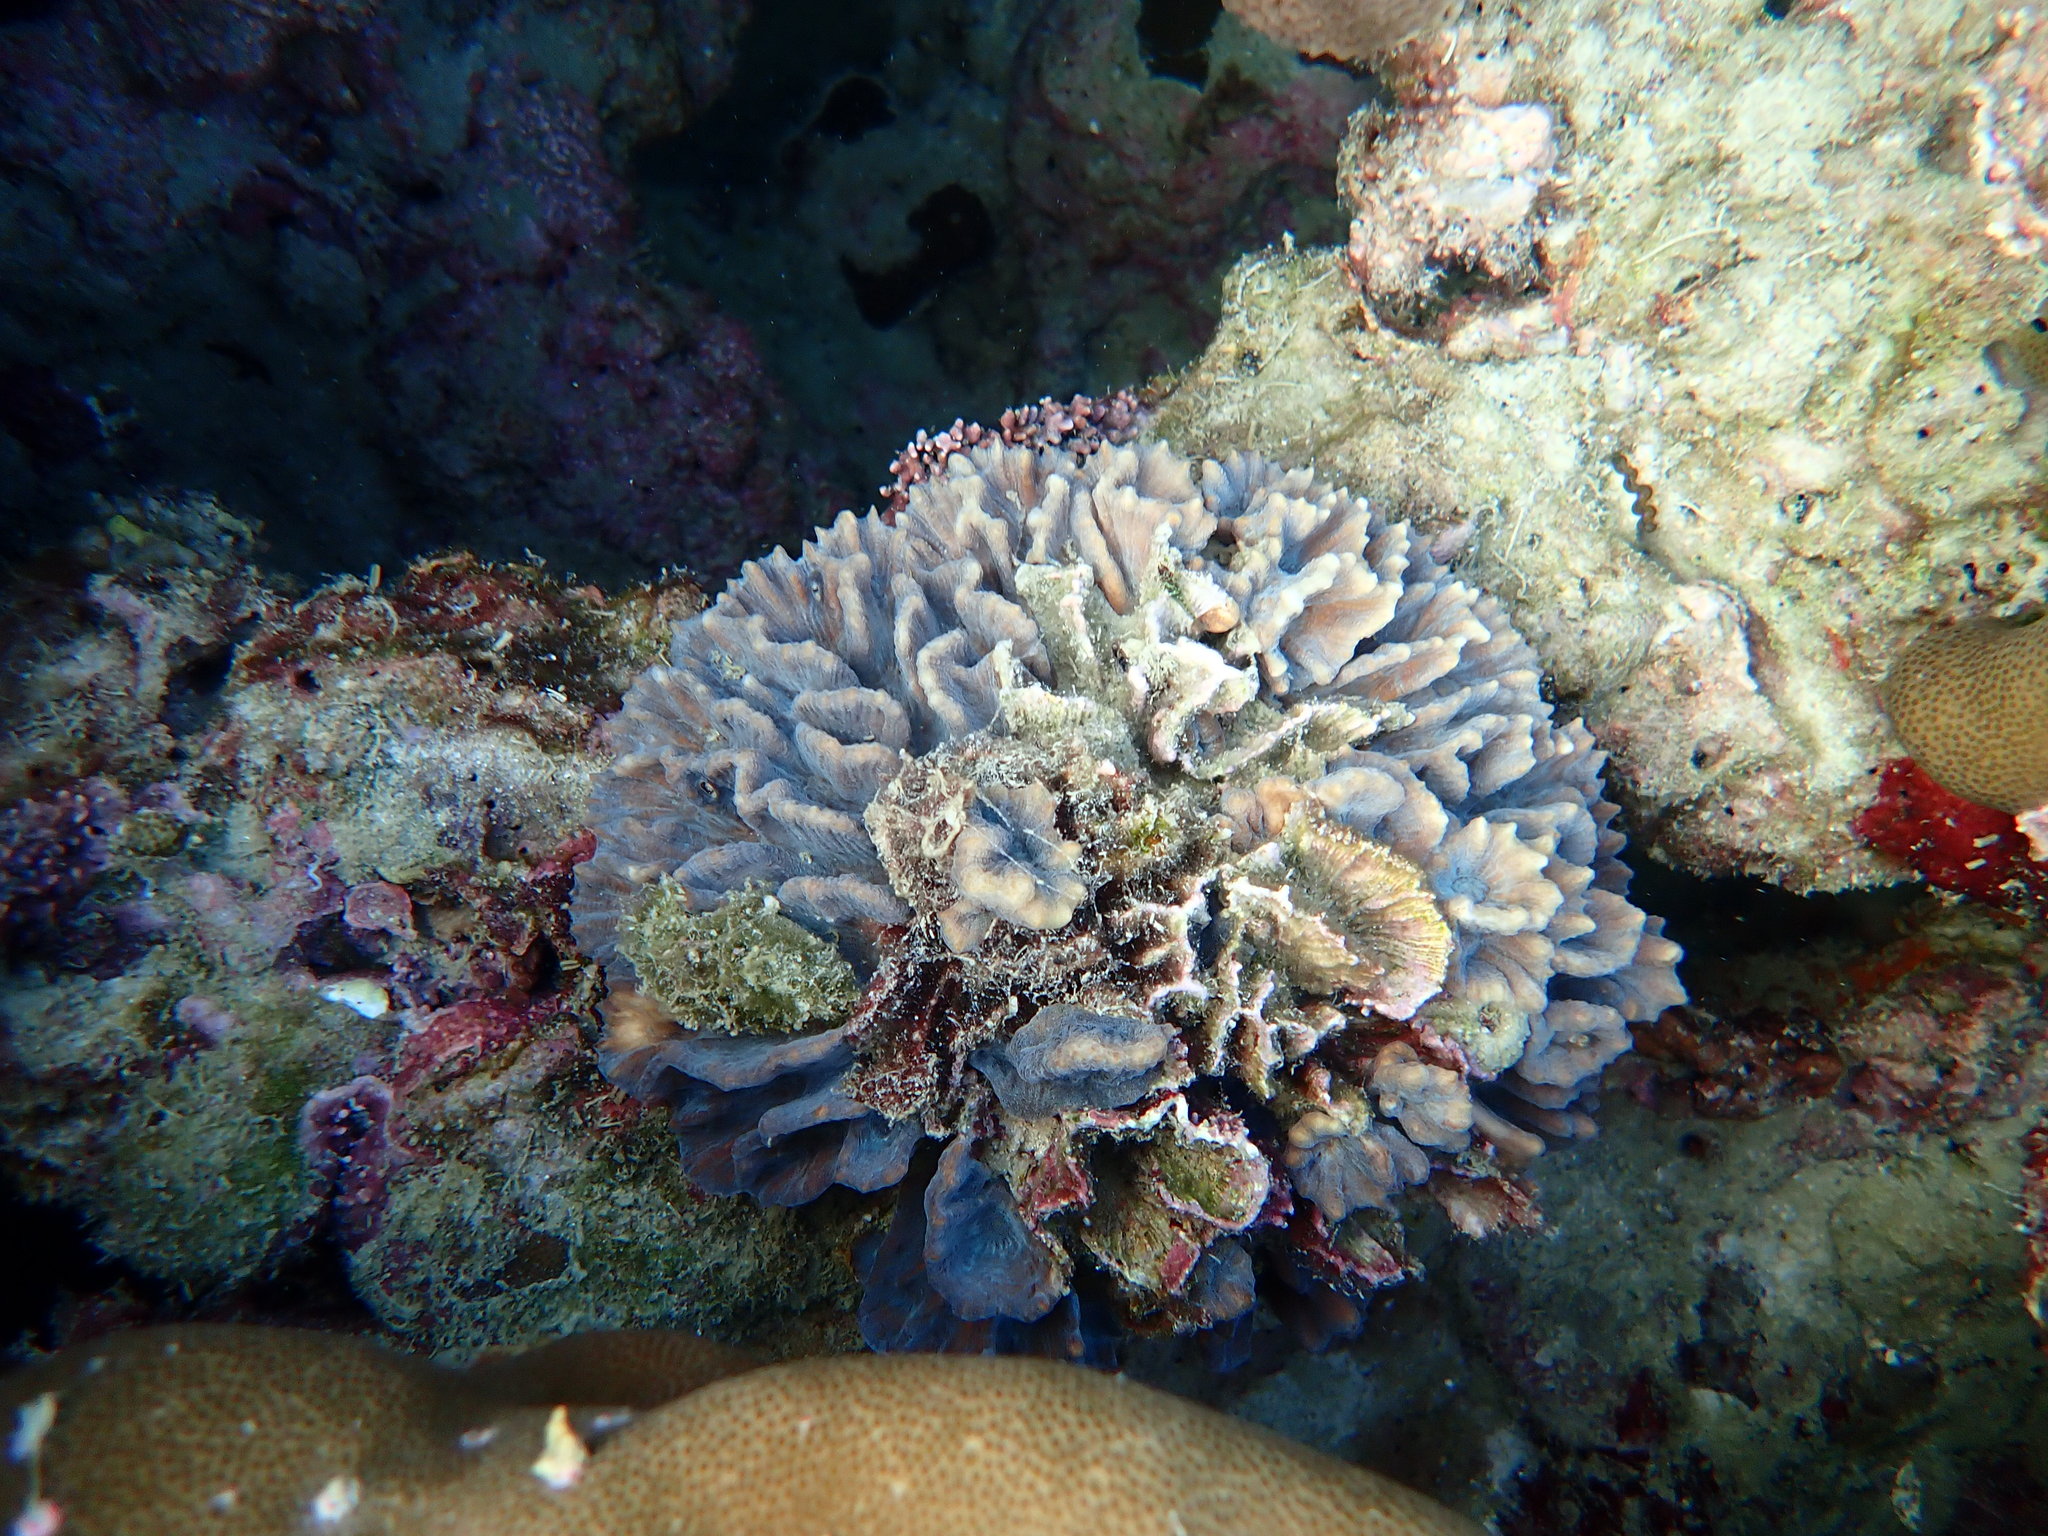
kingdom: Animalia
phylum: Cnidaria
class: Anthozoa
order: Scleractinia
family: Merulinidae
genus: Pectinia
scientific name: Pectinia lactuca
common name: Common lettuce coral
